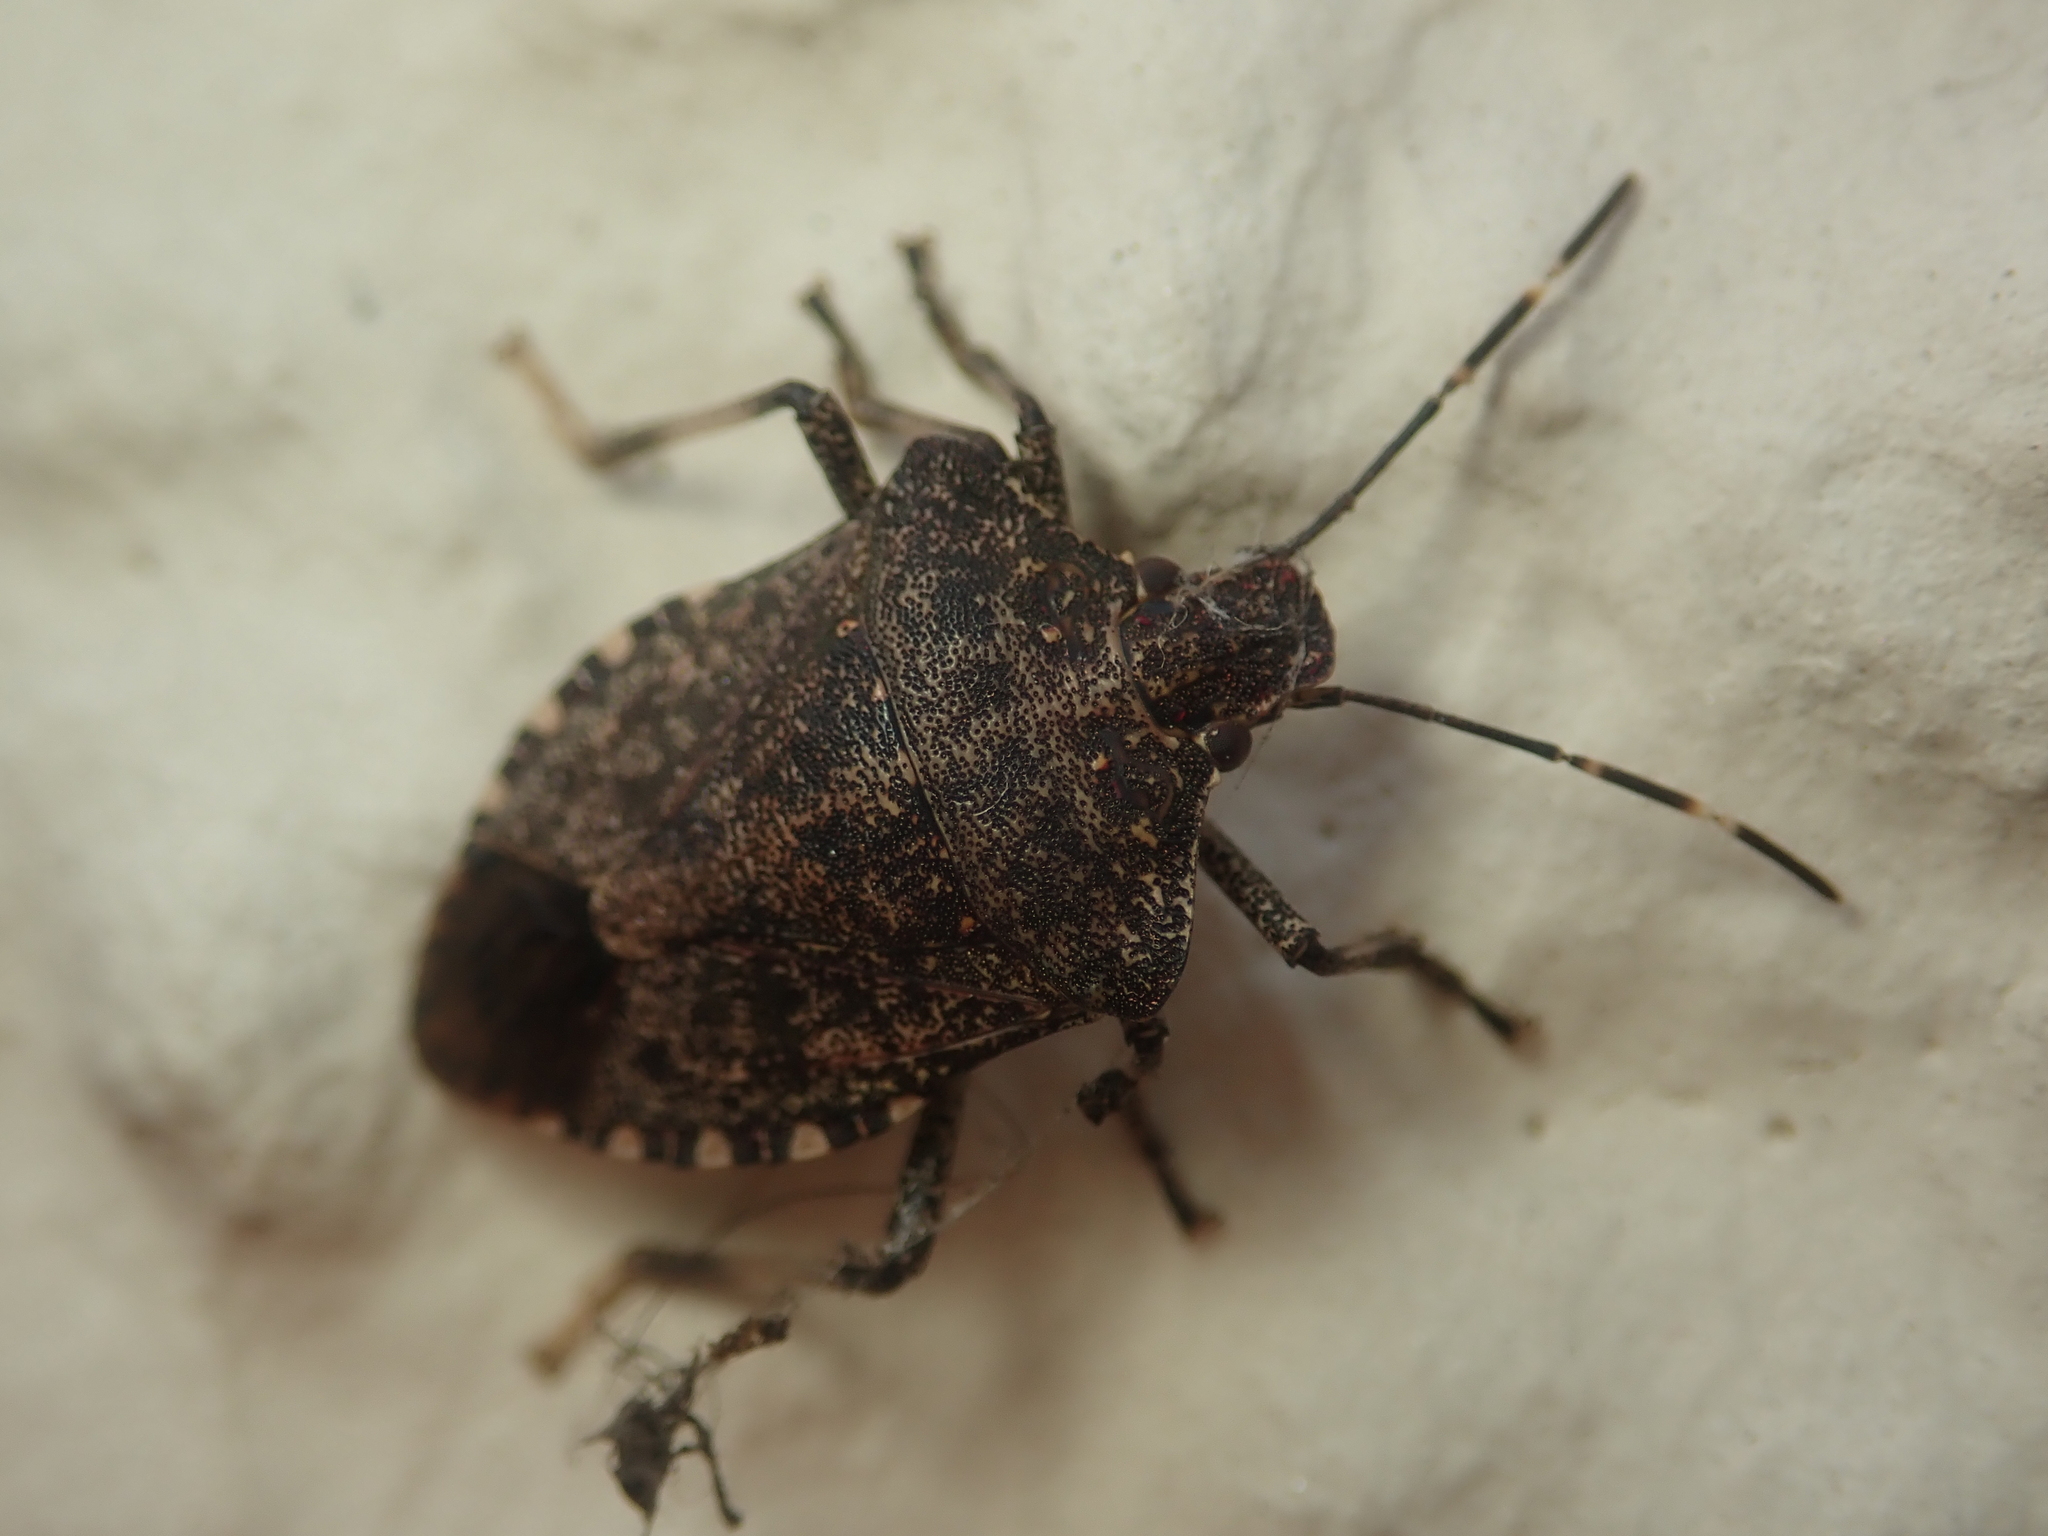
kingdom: Animalia
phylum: Arthropoda
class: Insecta
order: Hemiptera
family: Pentatomidae
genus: Halyomorpha
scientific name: Halyomorpha halys
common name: Brown marmorated stink bug
